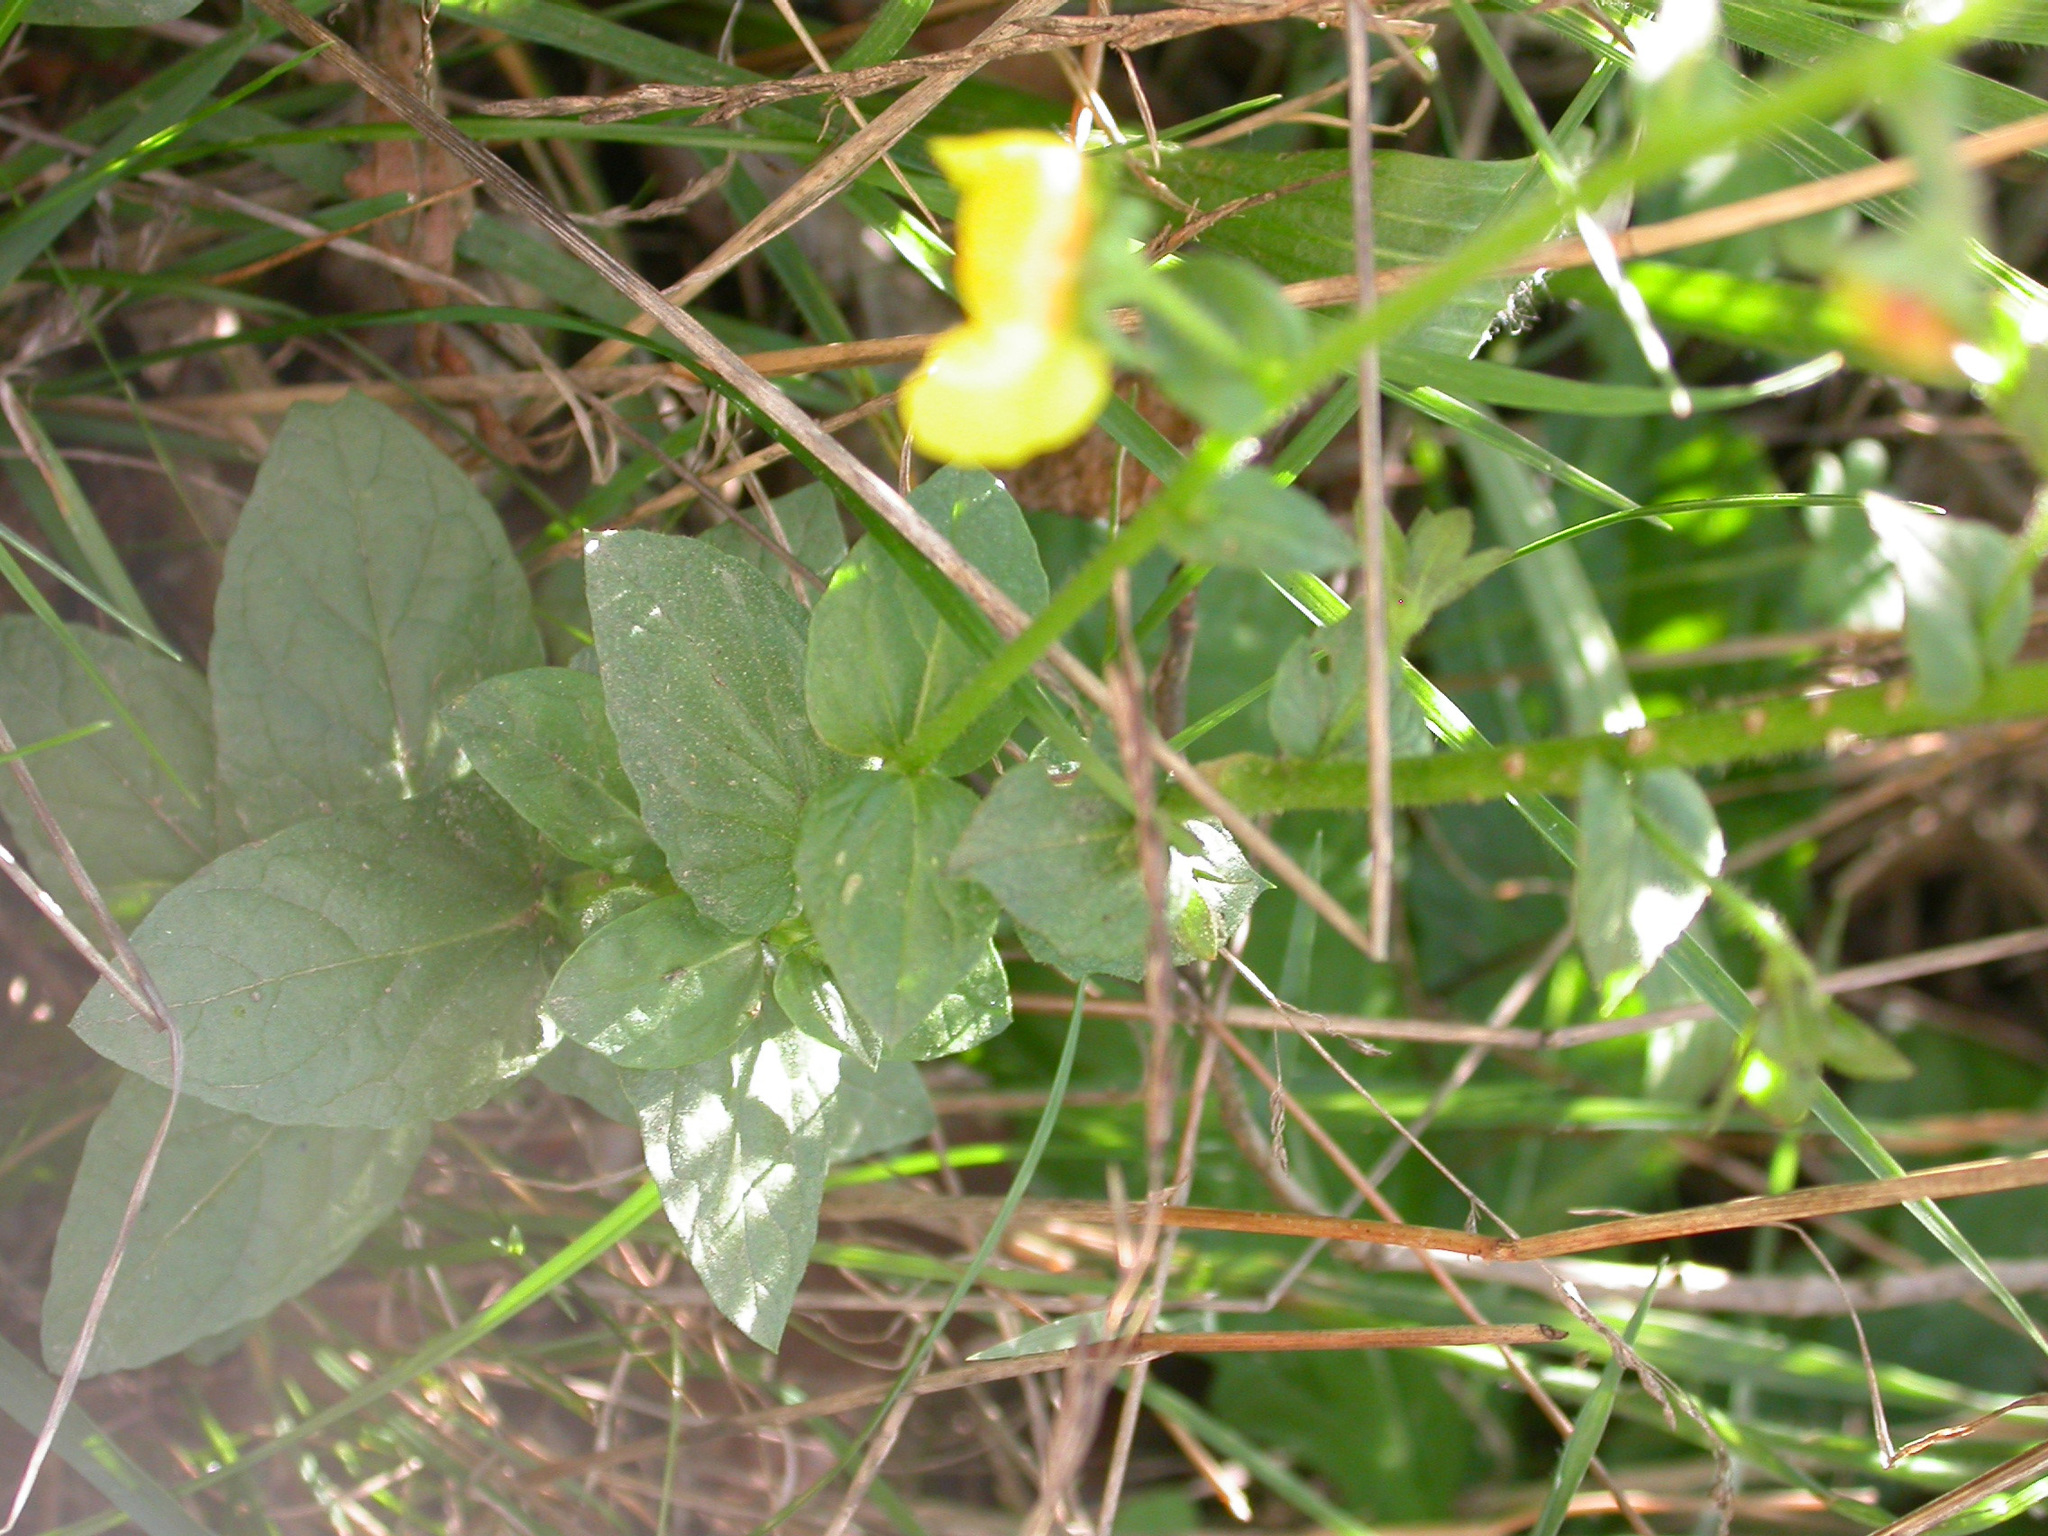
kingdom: Plantae
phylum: Tracheophyta
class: Magnoliopsida
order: Lamiales
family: Scrophulariaceae
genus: Verbascum
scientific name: Verbascum blattaria
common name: Moth mullein
